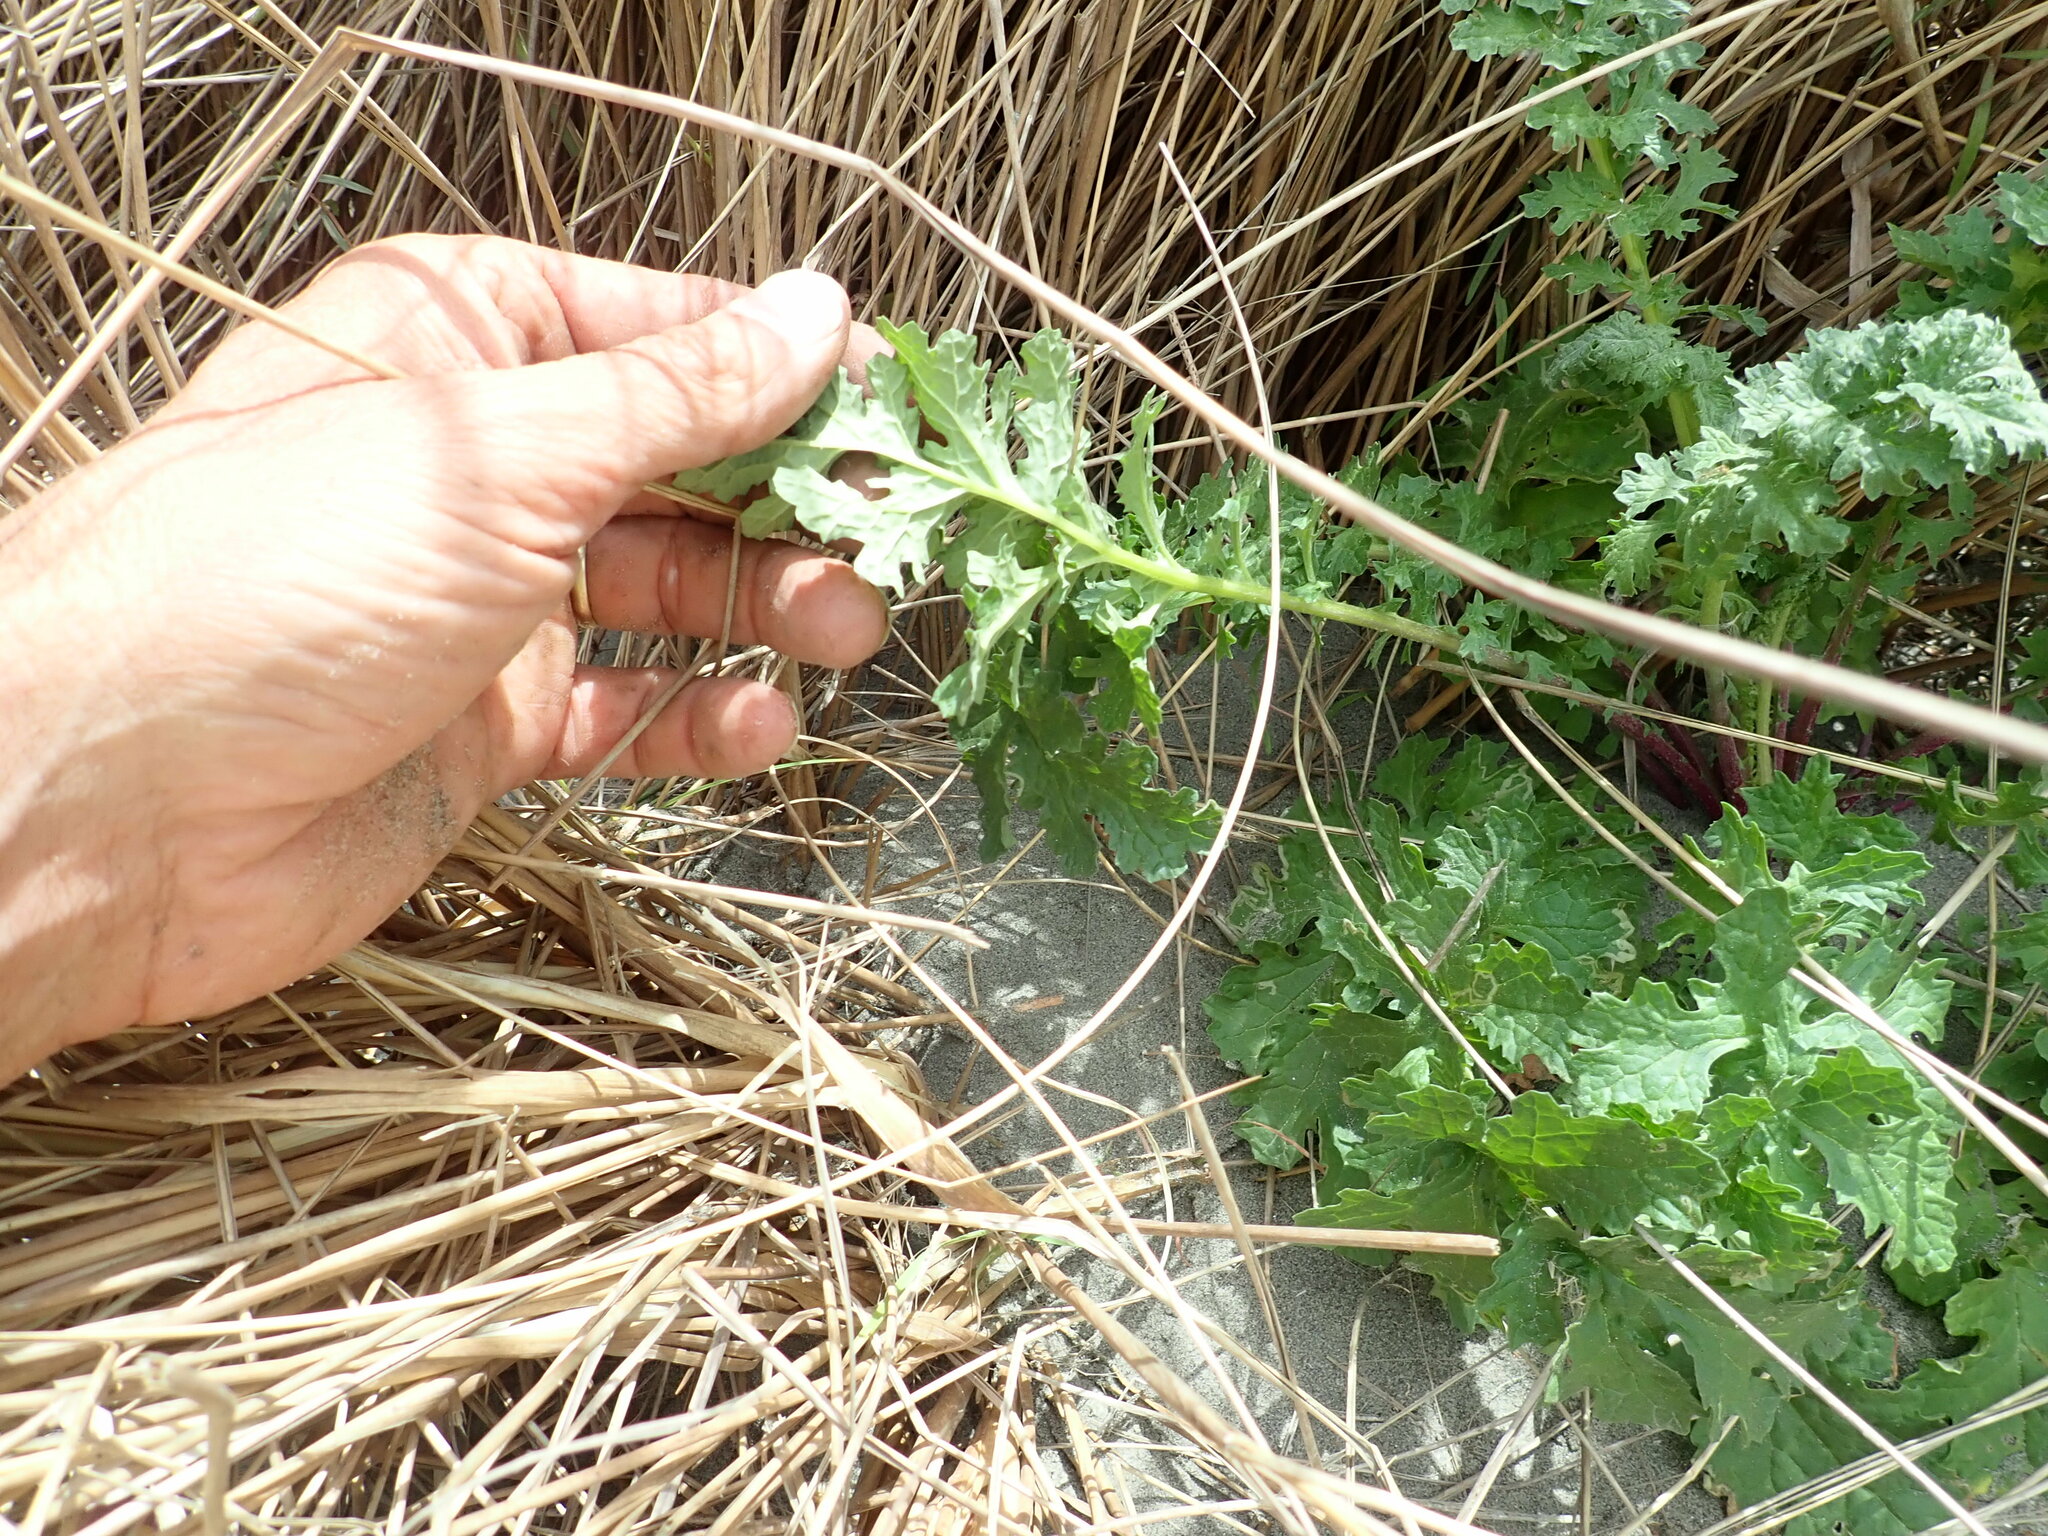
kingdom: Plantae
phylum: Tracheophyta
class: Magnoliopsida
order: Asterales
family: Asteraceae
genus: Jacobaea
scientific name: Jacobaea vulgaris
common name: Stinking willie
